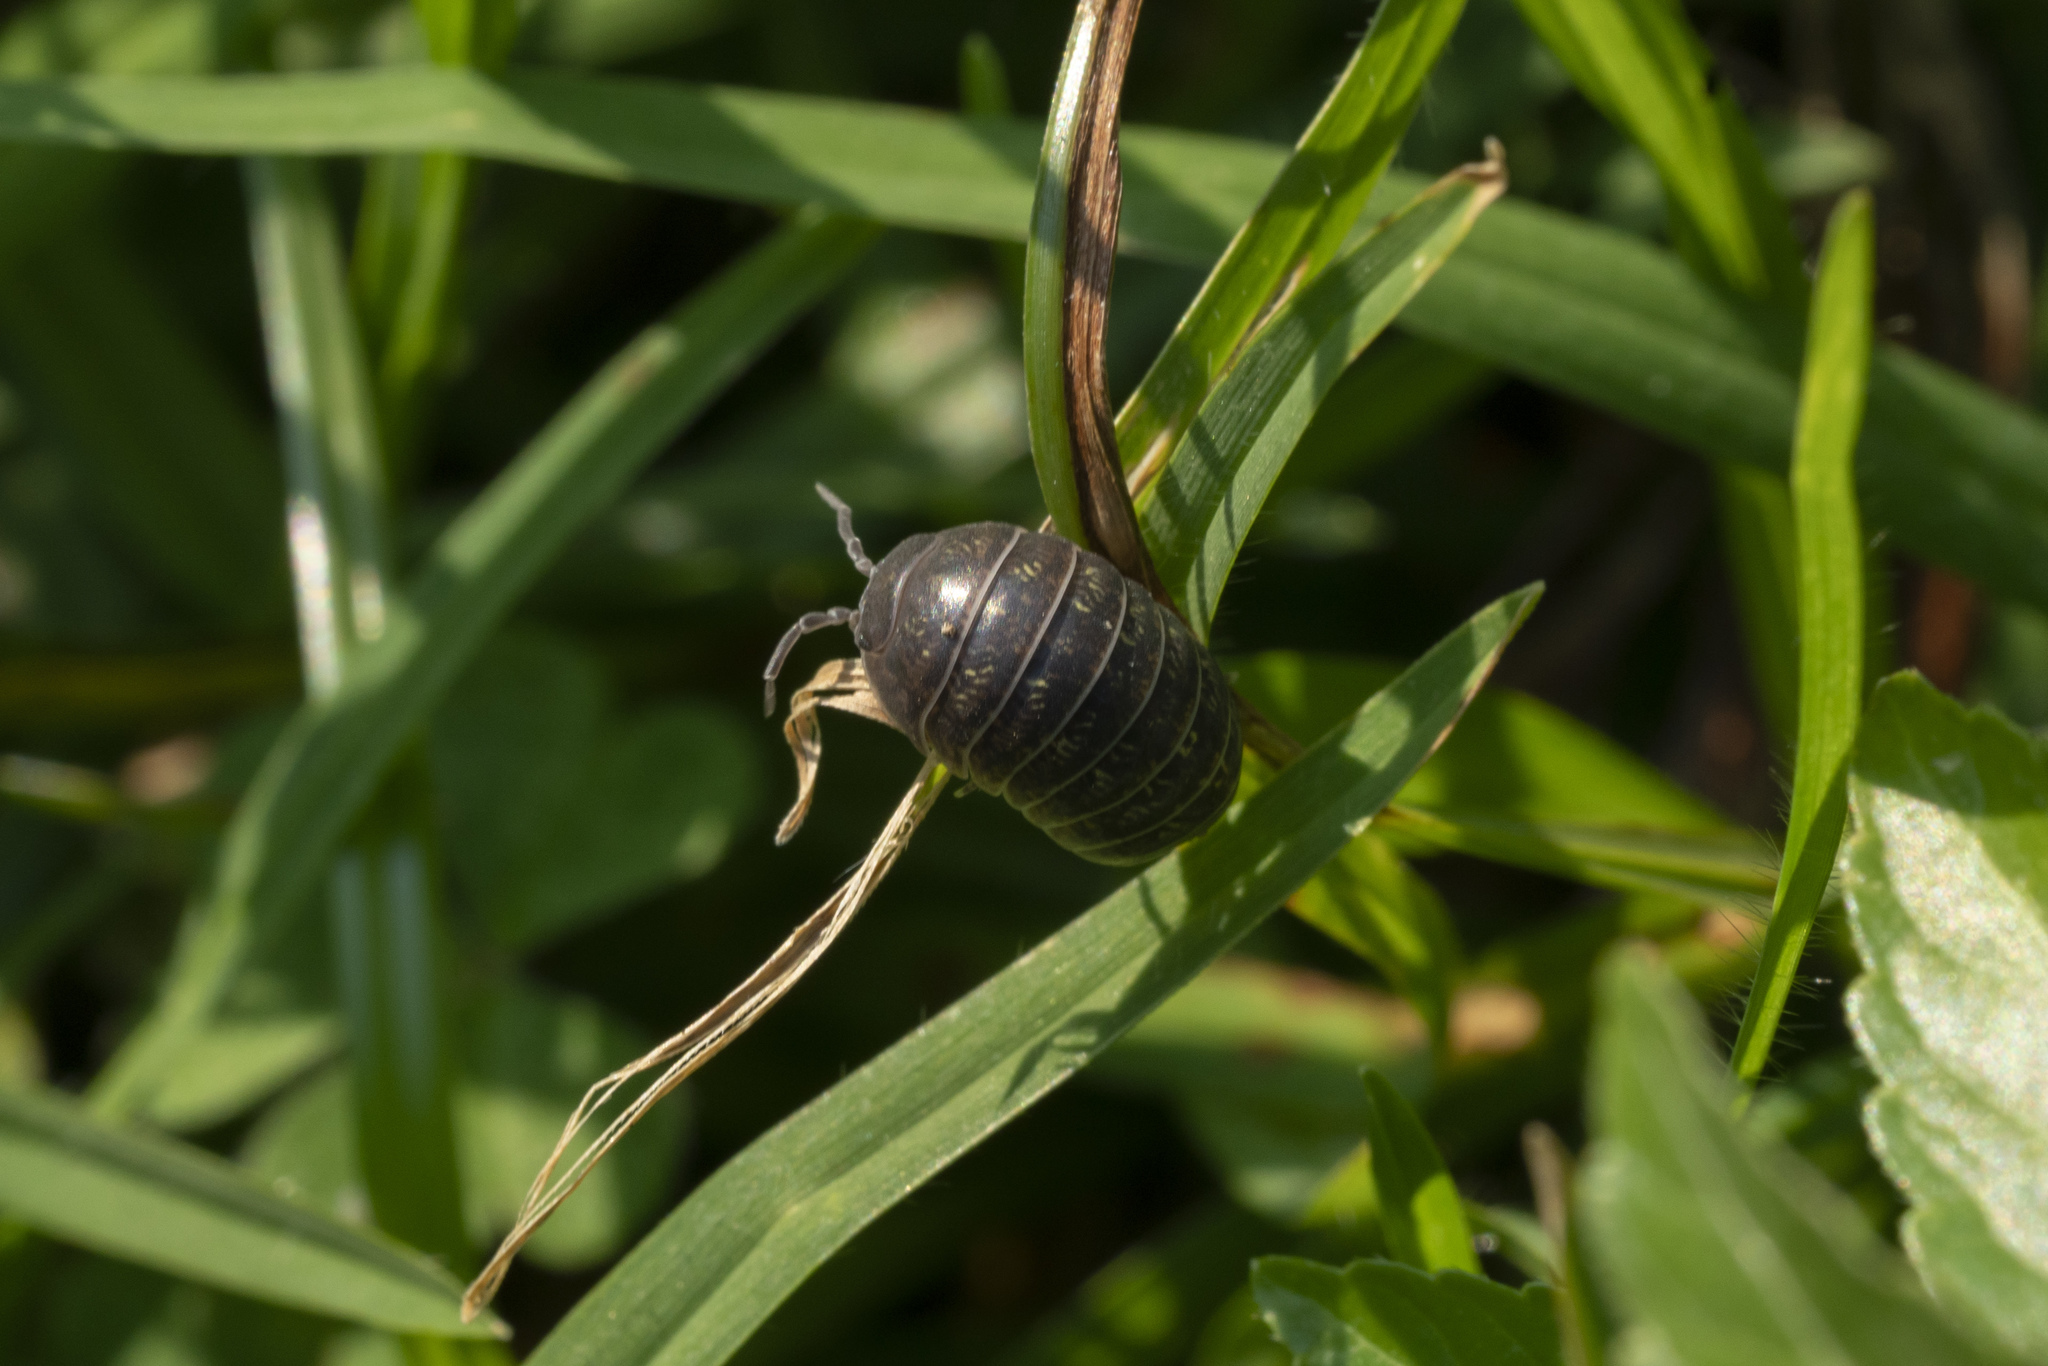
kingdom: Animalia
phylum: Arthropoda
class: Malacostraca
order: Isopoda
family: Armadillidiidae
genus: Armadillidium
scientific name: Armadillidium vulgare
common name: Common pill woodlouse
